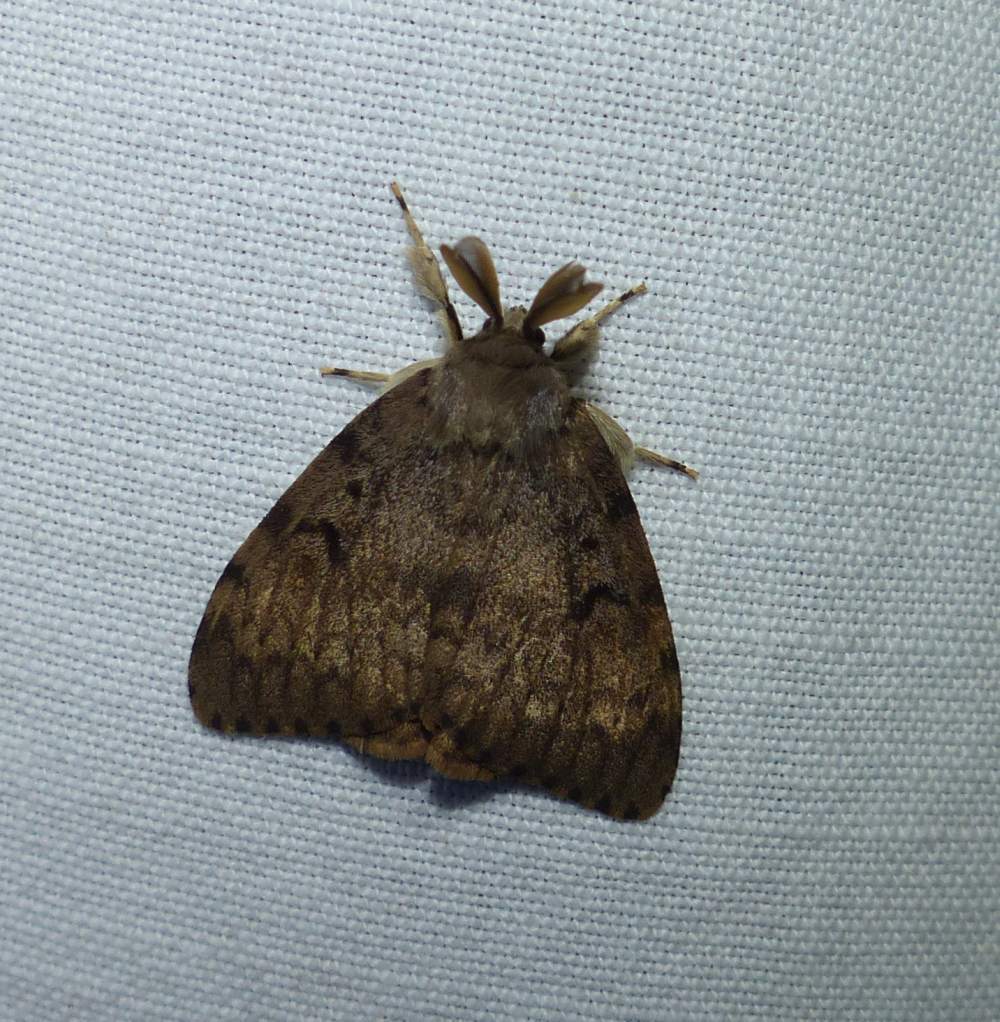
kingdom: Animalia
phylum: Arthropoda
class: Insecta
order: Lepidoptera
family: Erebidae
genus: Lymantria
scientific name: Lymantria dispar
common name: Gypsy moth
